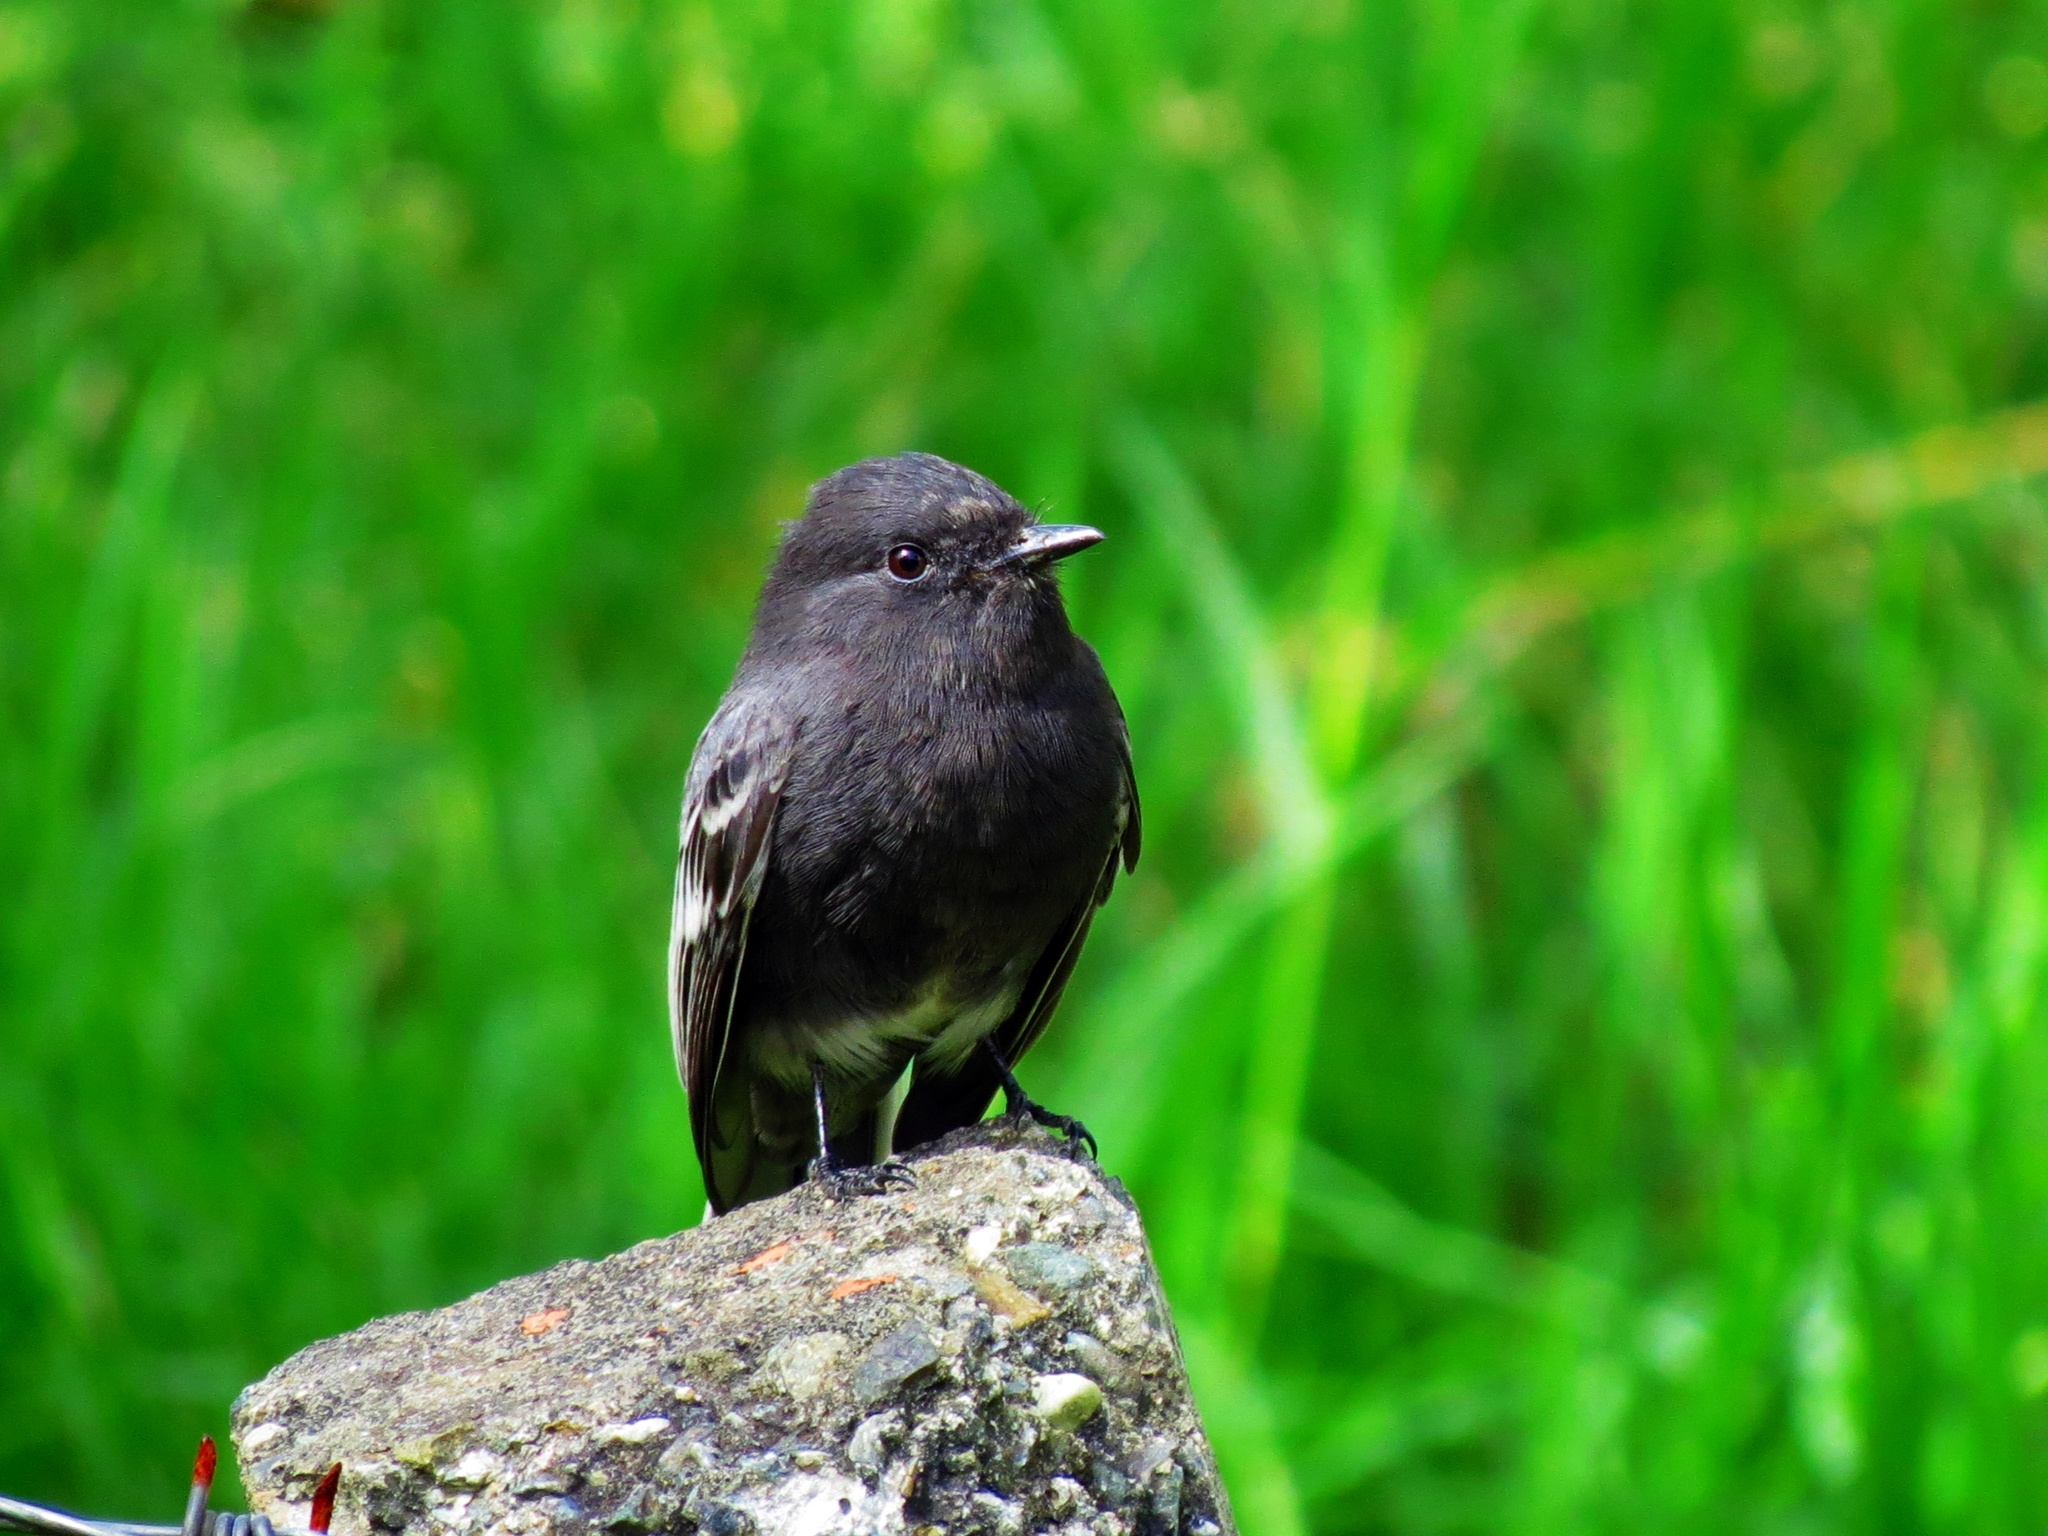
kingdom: Animalia
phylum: Chordata
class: Aves
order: Passeriformes
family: Tyrannidae
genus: Sayornis
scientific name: Sayornis nigricans
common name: Black phoebe
